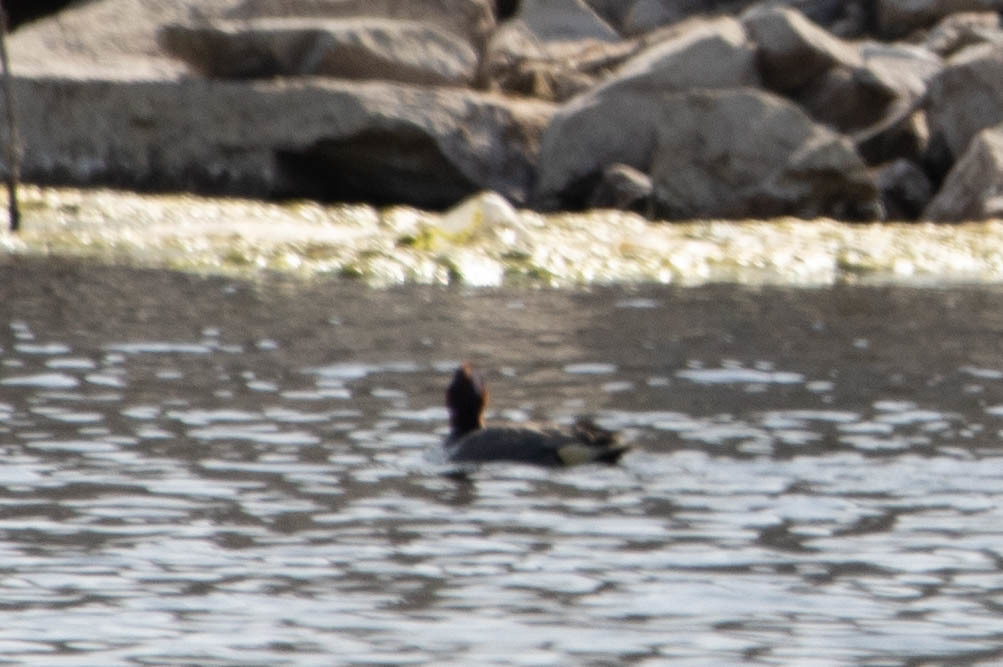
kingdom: Animalia
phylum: Chordata
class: Aves
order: Anseriformes
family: Anatidae
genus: Anas
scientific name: Anas crecca
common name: Eurasian teal
